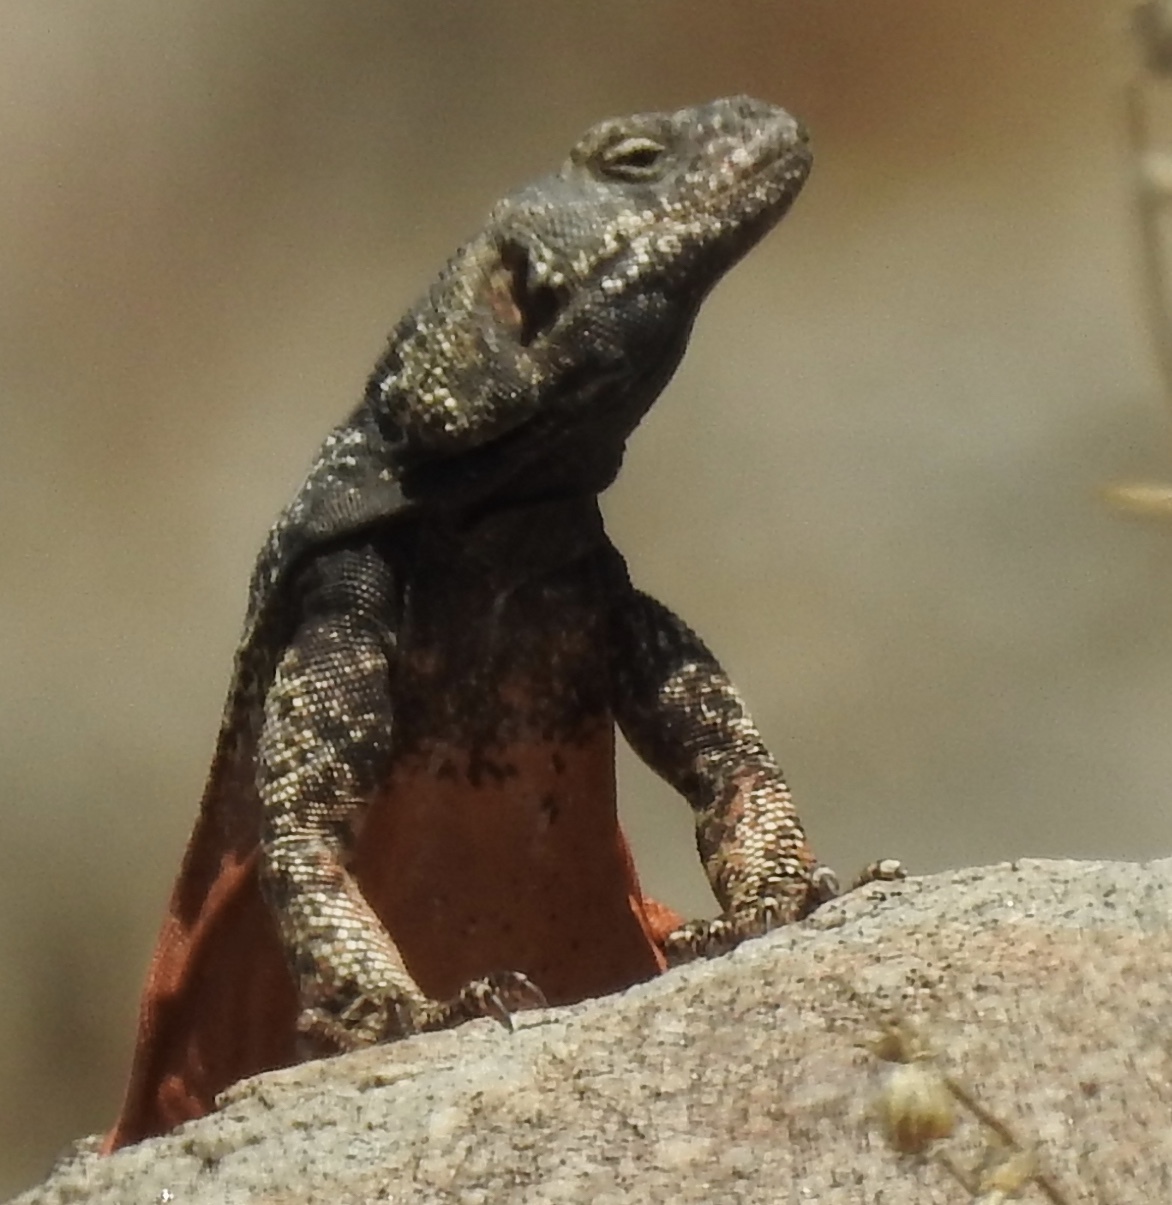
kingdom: Animalia
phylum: Chordata
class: Squamata
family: Iguanidae
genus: Sauromalus
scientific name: Sauromalus ater
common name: Northern chuckwalla
